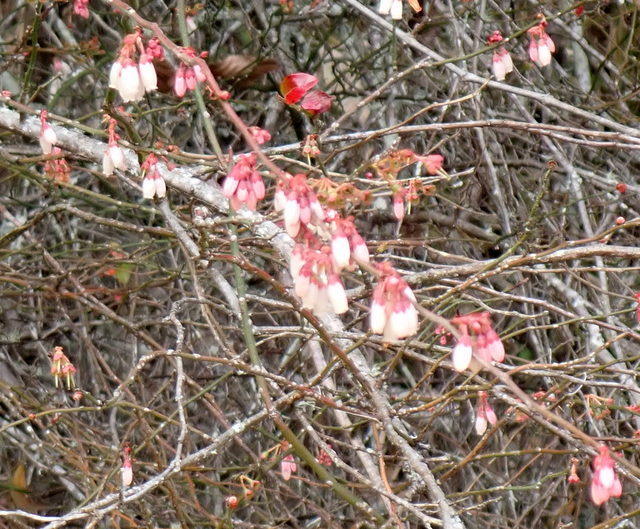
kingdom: Plantae
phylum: Tracheophyta
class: Magnoliopsida
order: Ericales
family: Ericaceae
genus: Vaccinium
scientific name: Vaccinium corymbosum
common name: Blueberry
